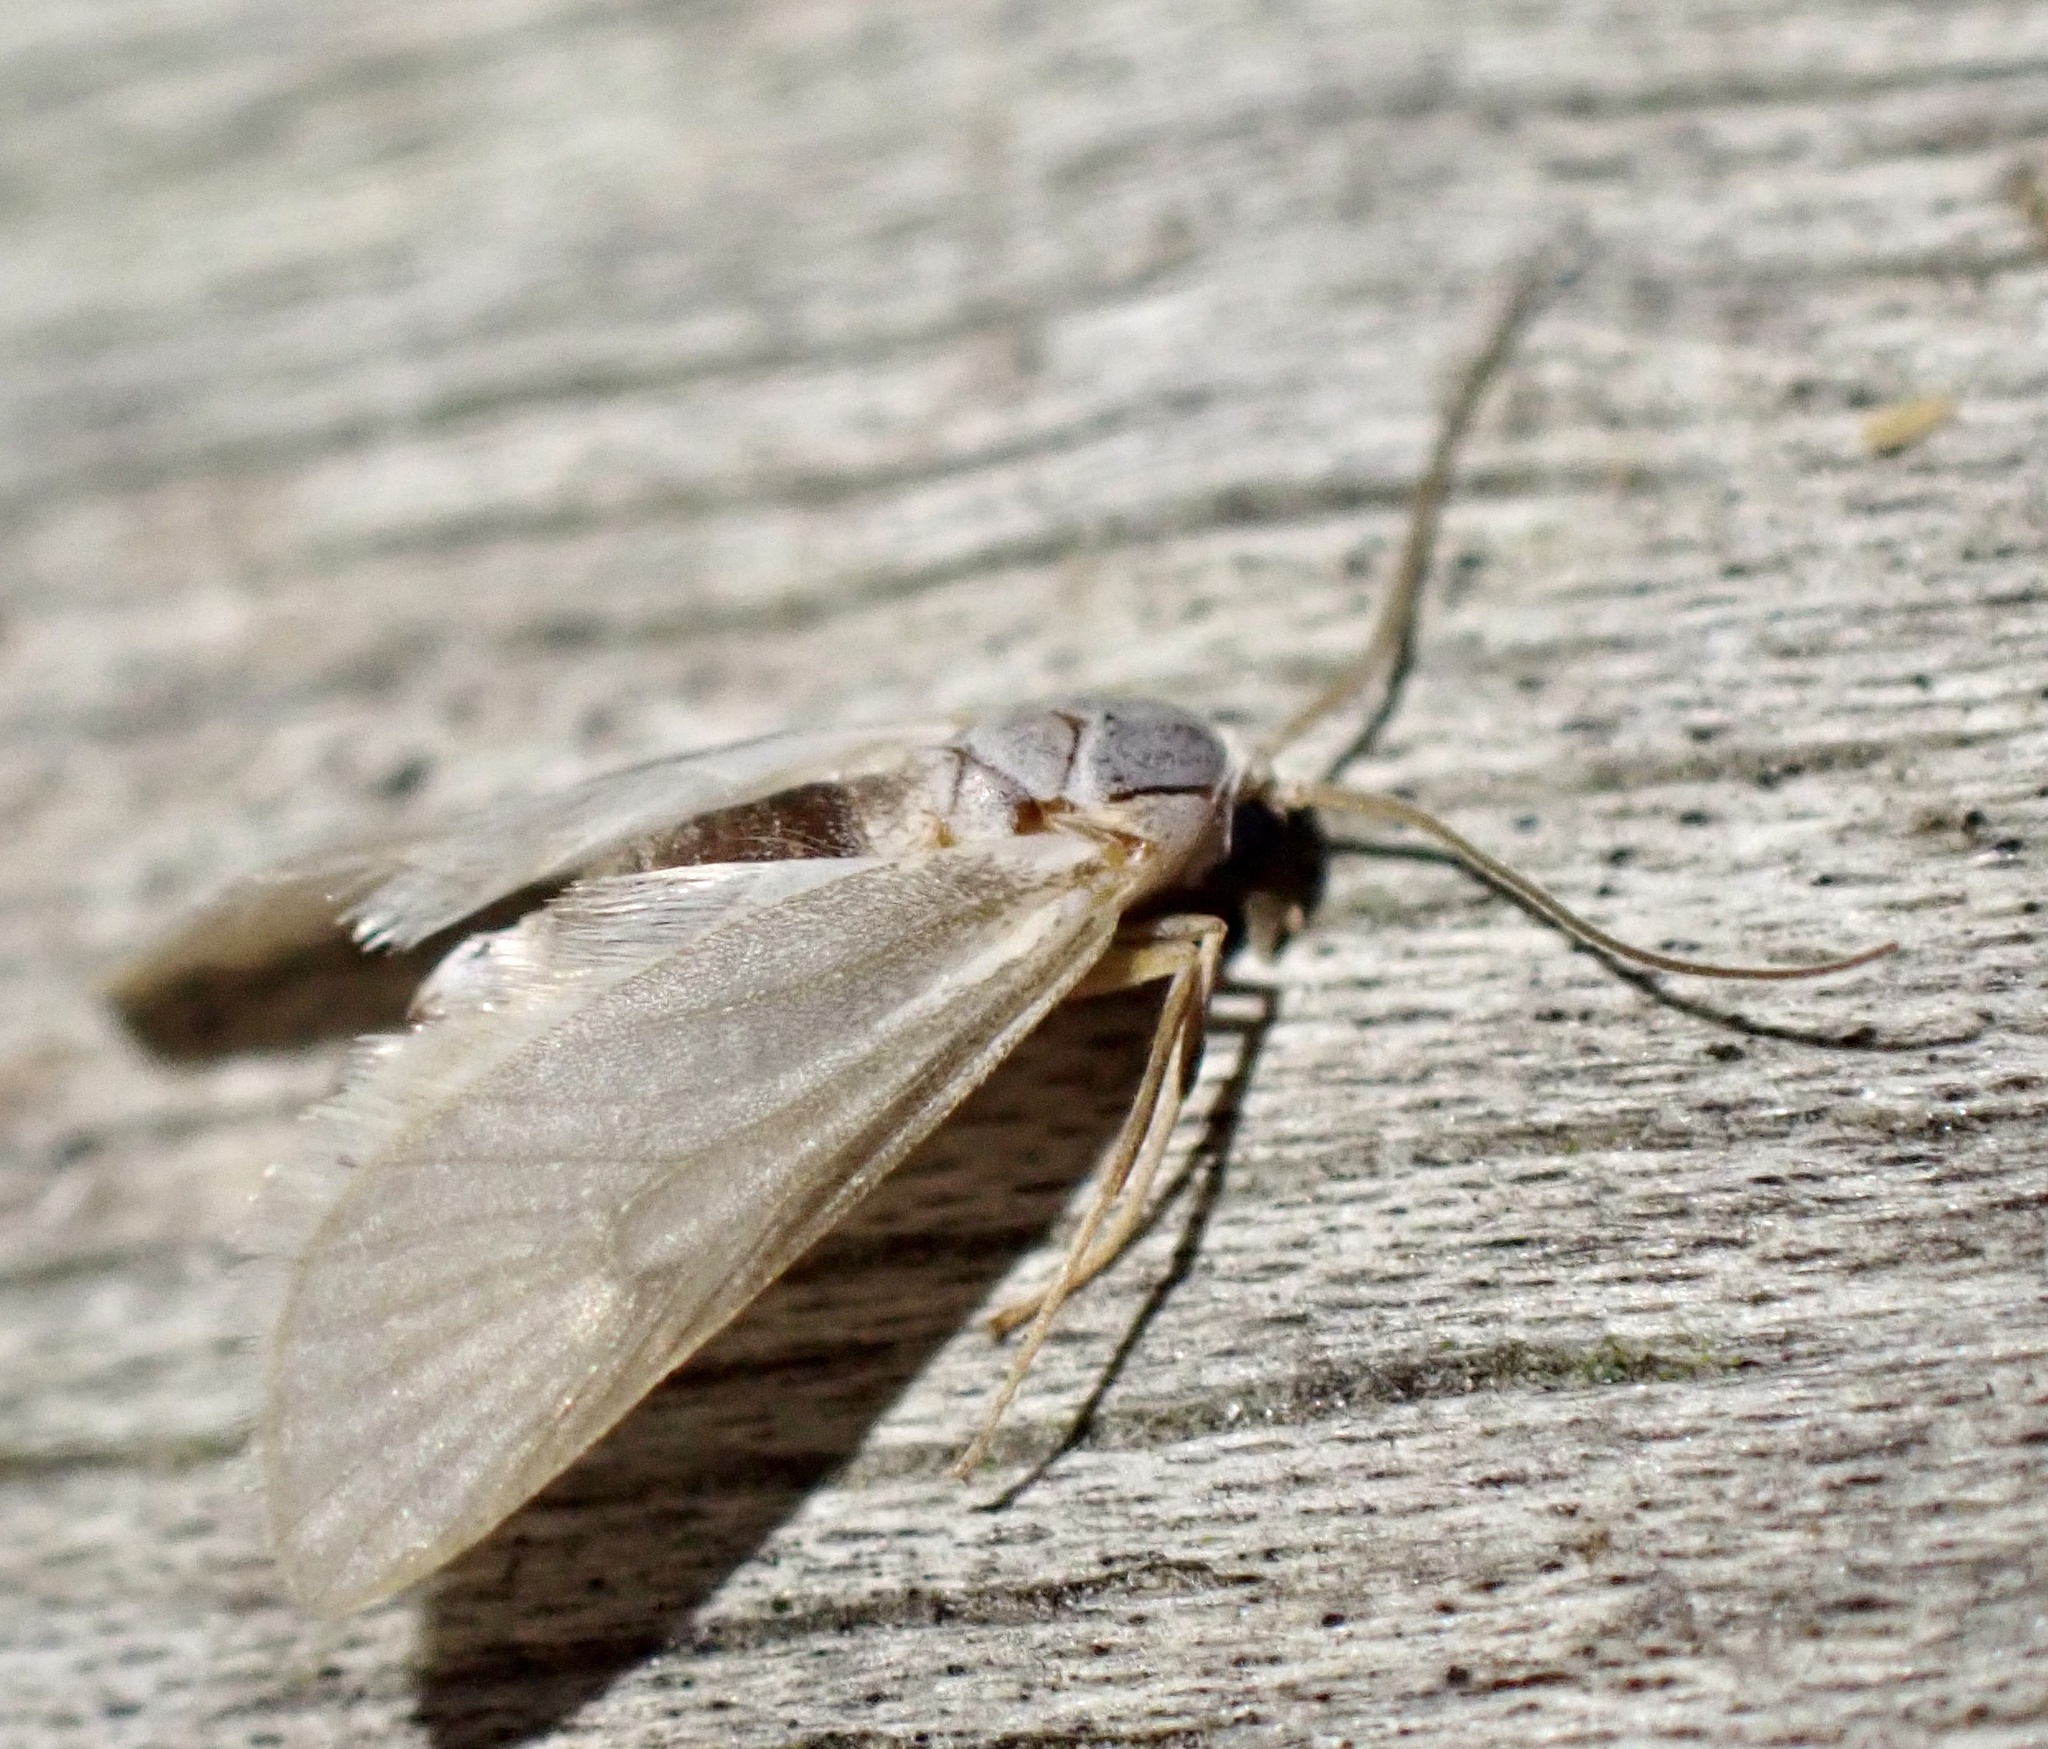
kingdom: Animalia
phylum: Arthropoda
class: Insecta
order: Lepidoptera
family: Crambidae
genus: Acentria
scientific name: Acentria ephemerella
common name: European water moth
